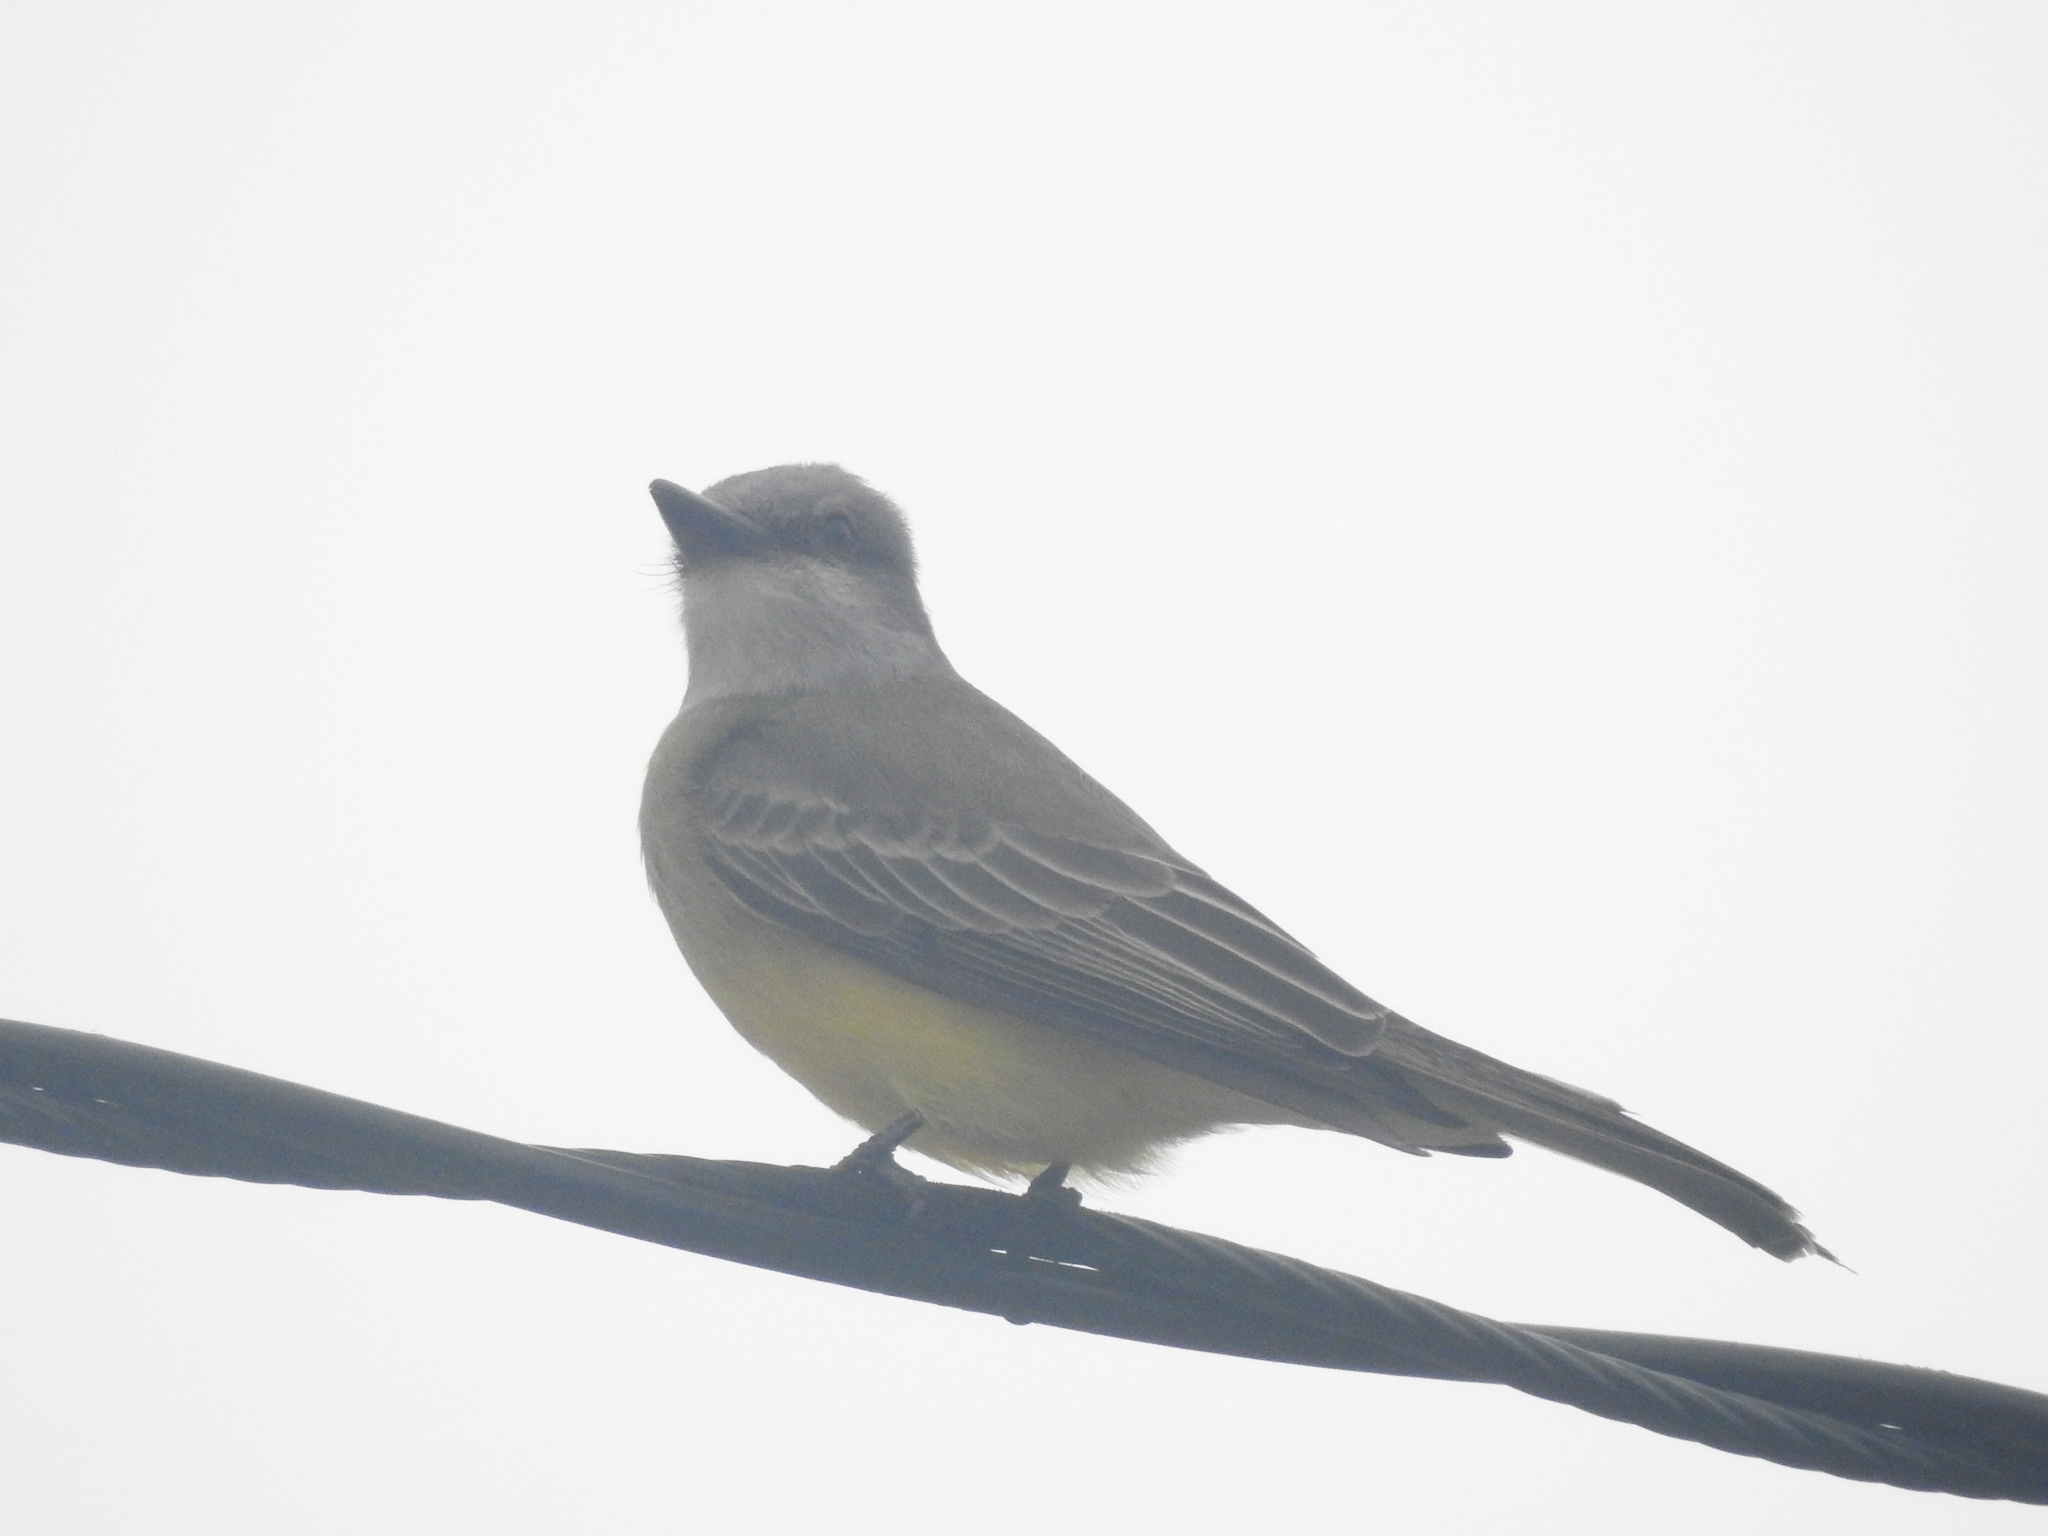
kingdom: Animalia
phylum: Chordata
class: Aves
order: Passeriformes
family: Tyrannidae
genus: Tyrannus
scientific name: Tyrannus melancholicus
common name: Tropical kingbird
